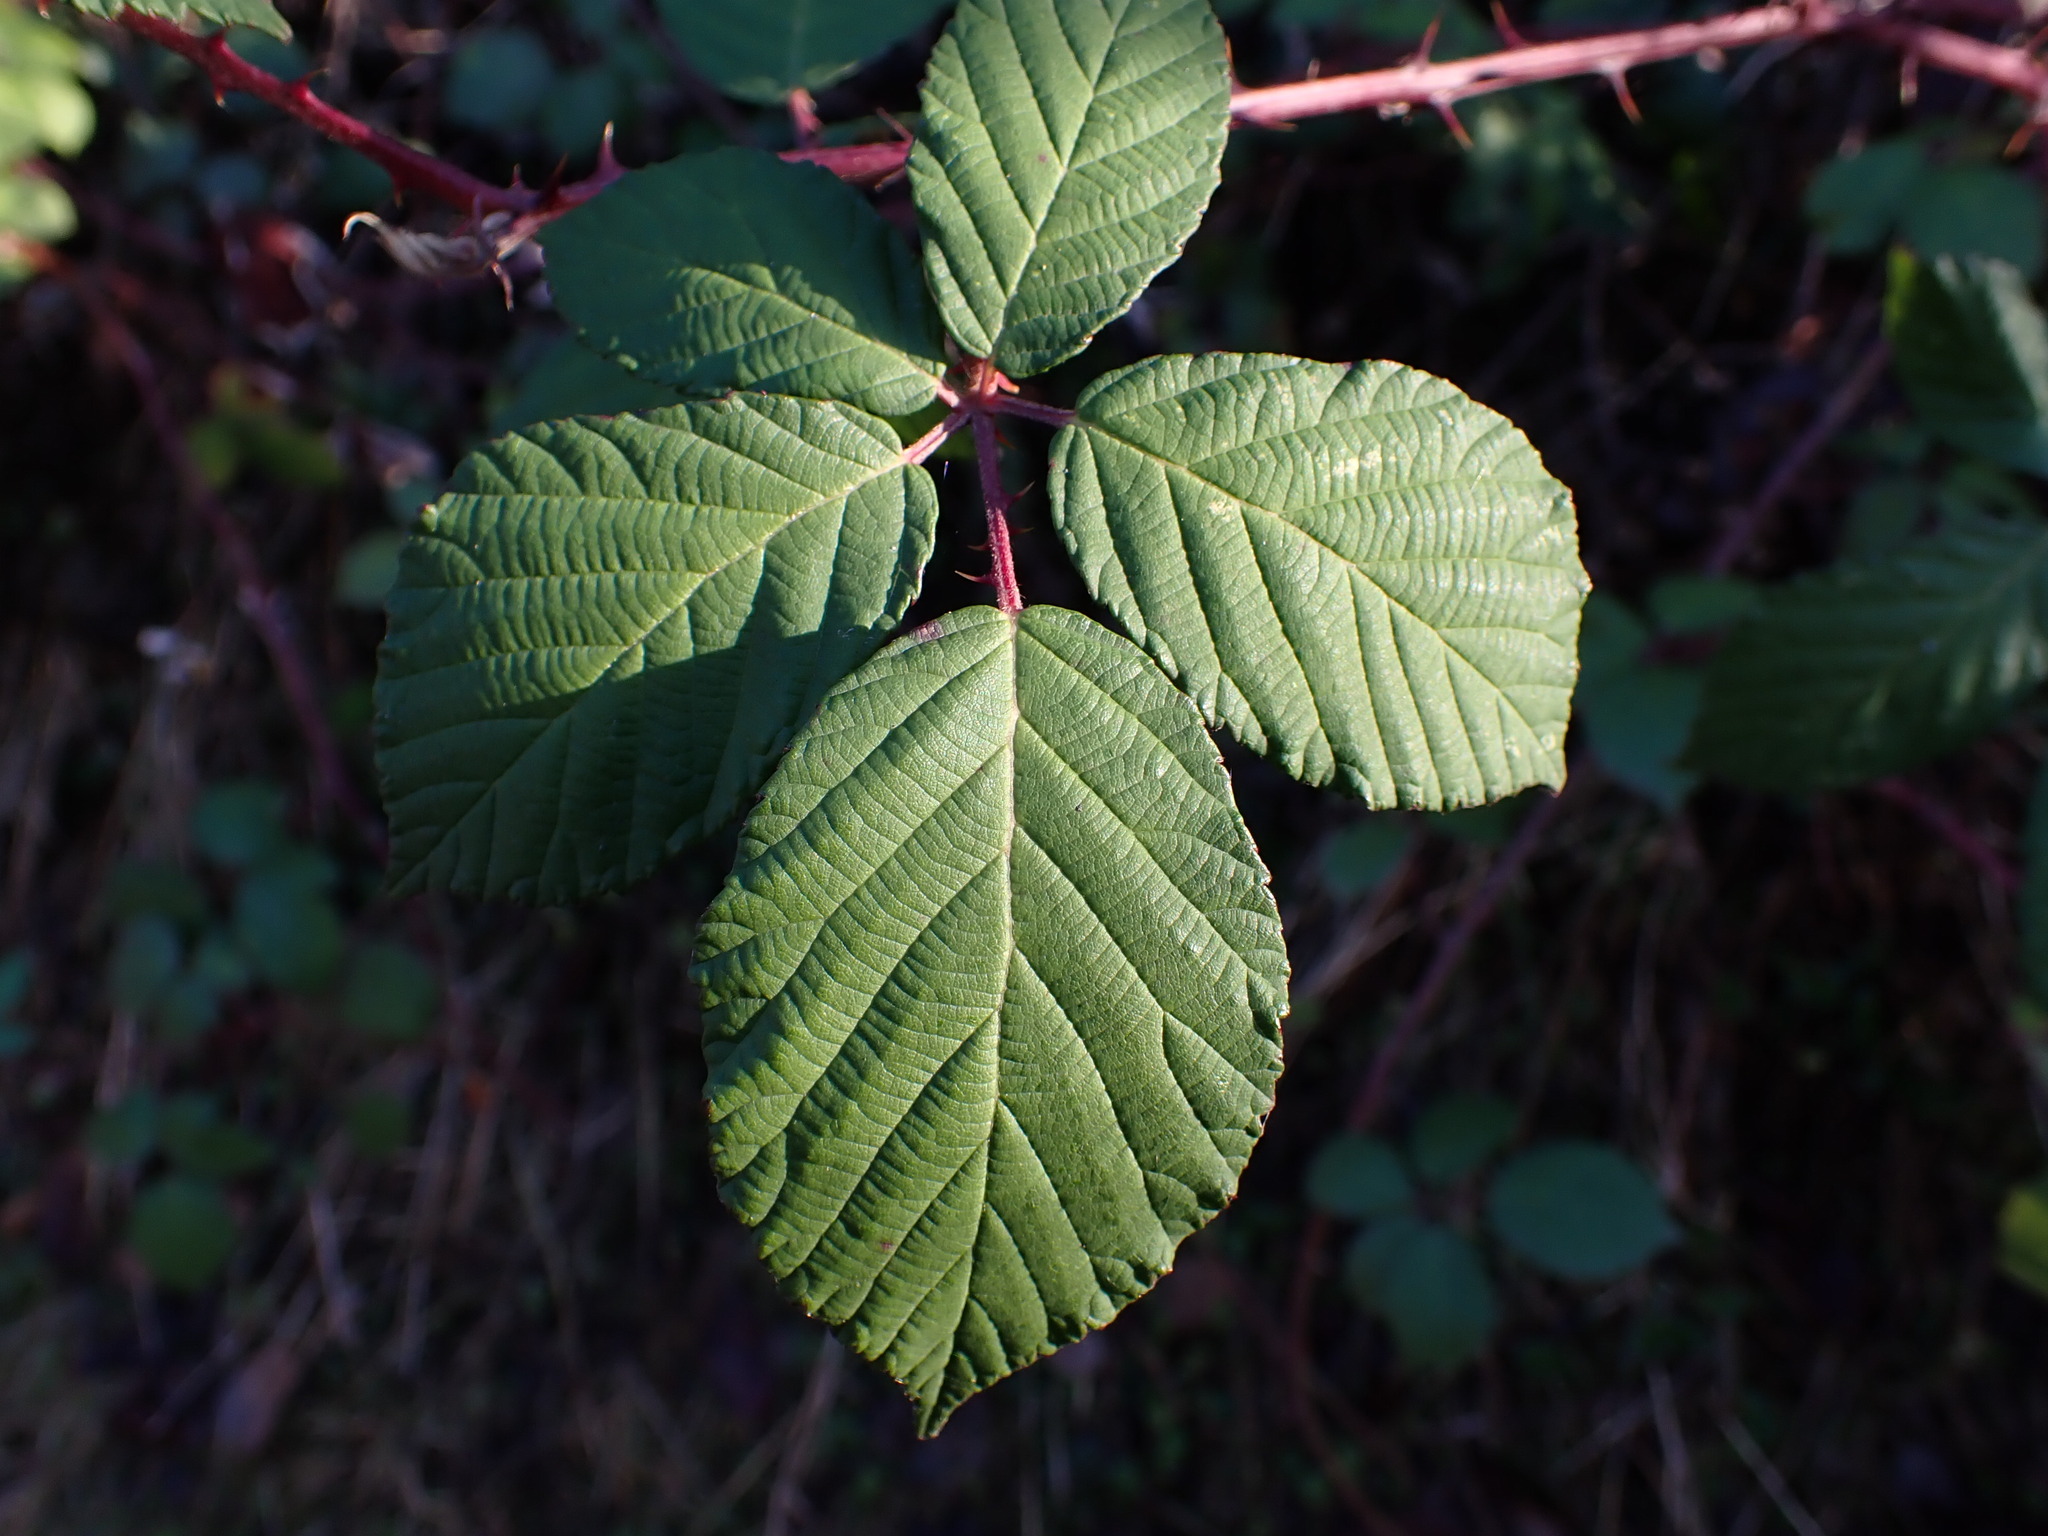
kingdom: Plantae
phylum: Tracheophyta
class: Magnoliopsida
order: Rosales
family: Rosaceae
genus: Rubus
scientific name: Rubus bifrons
